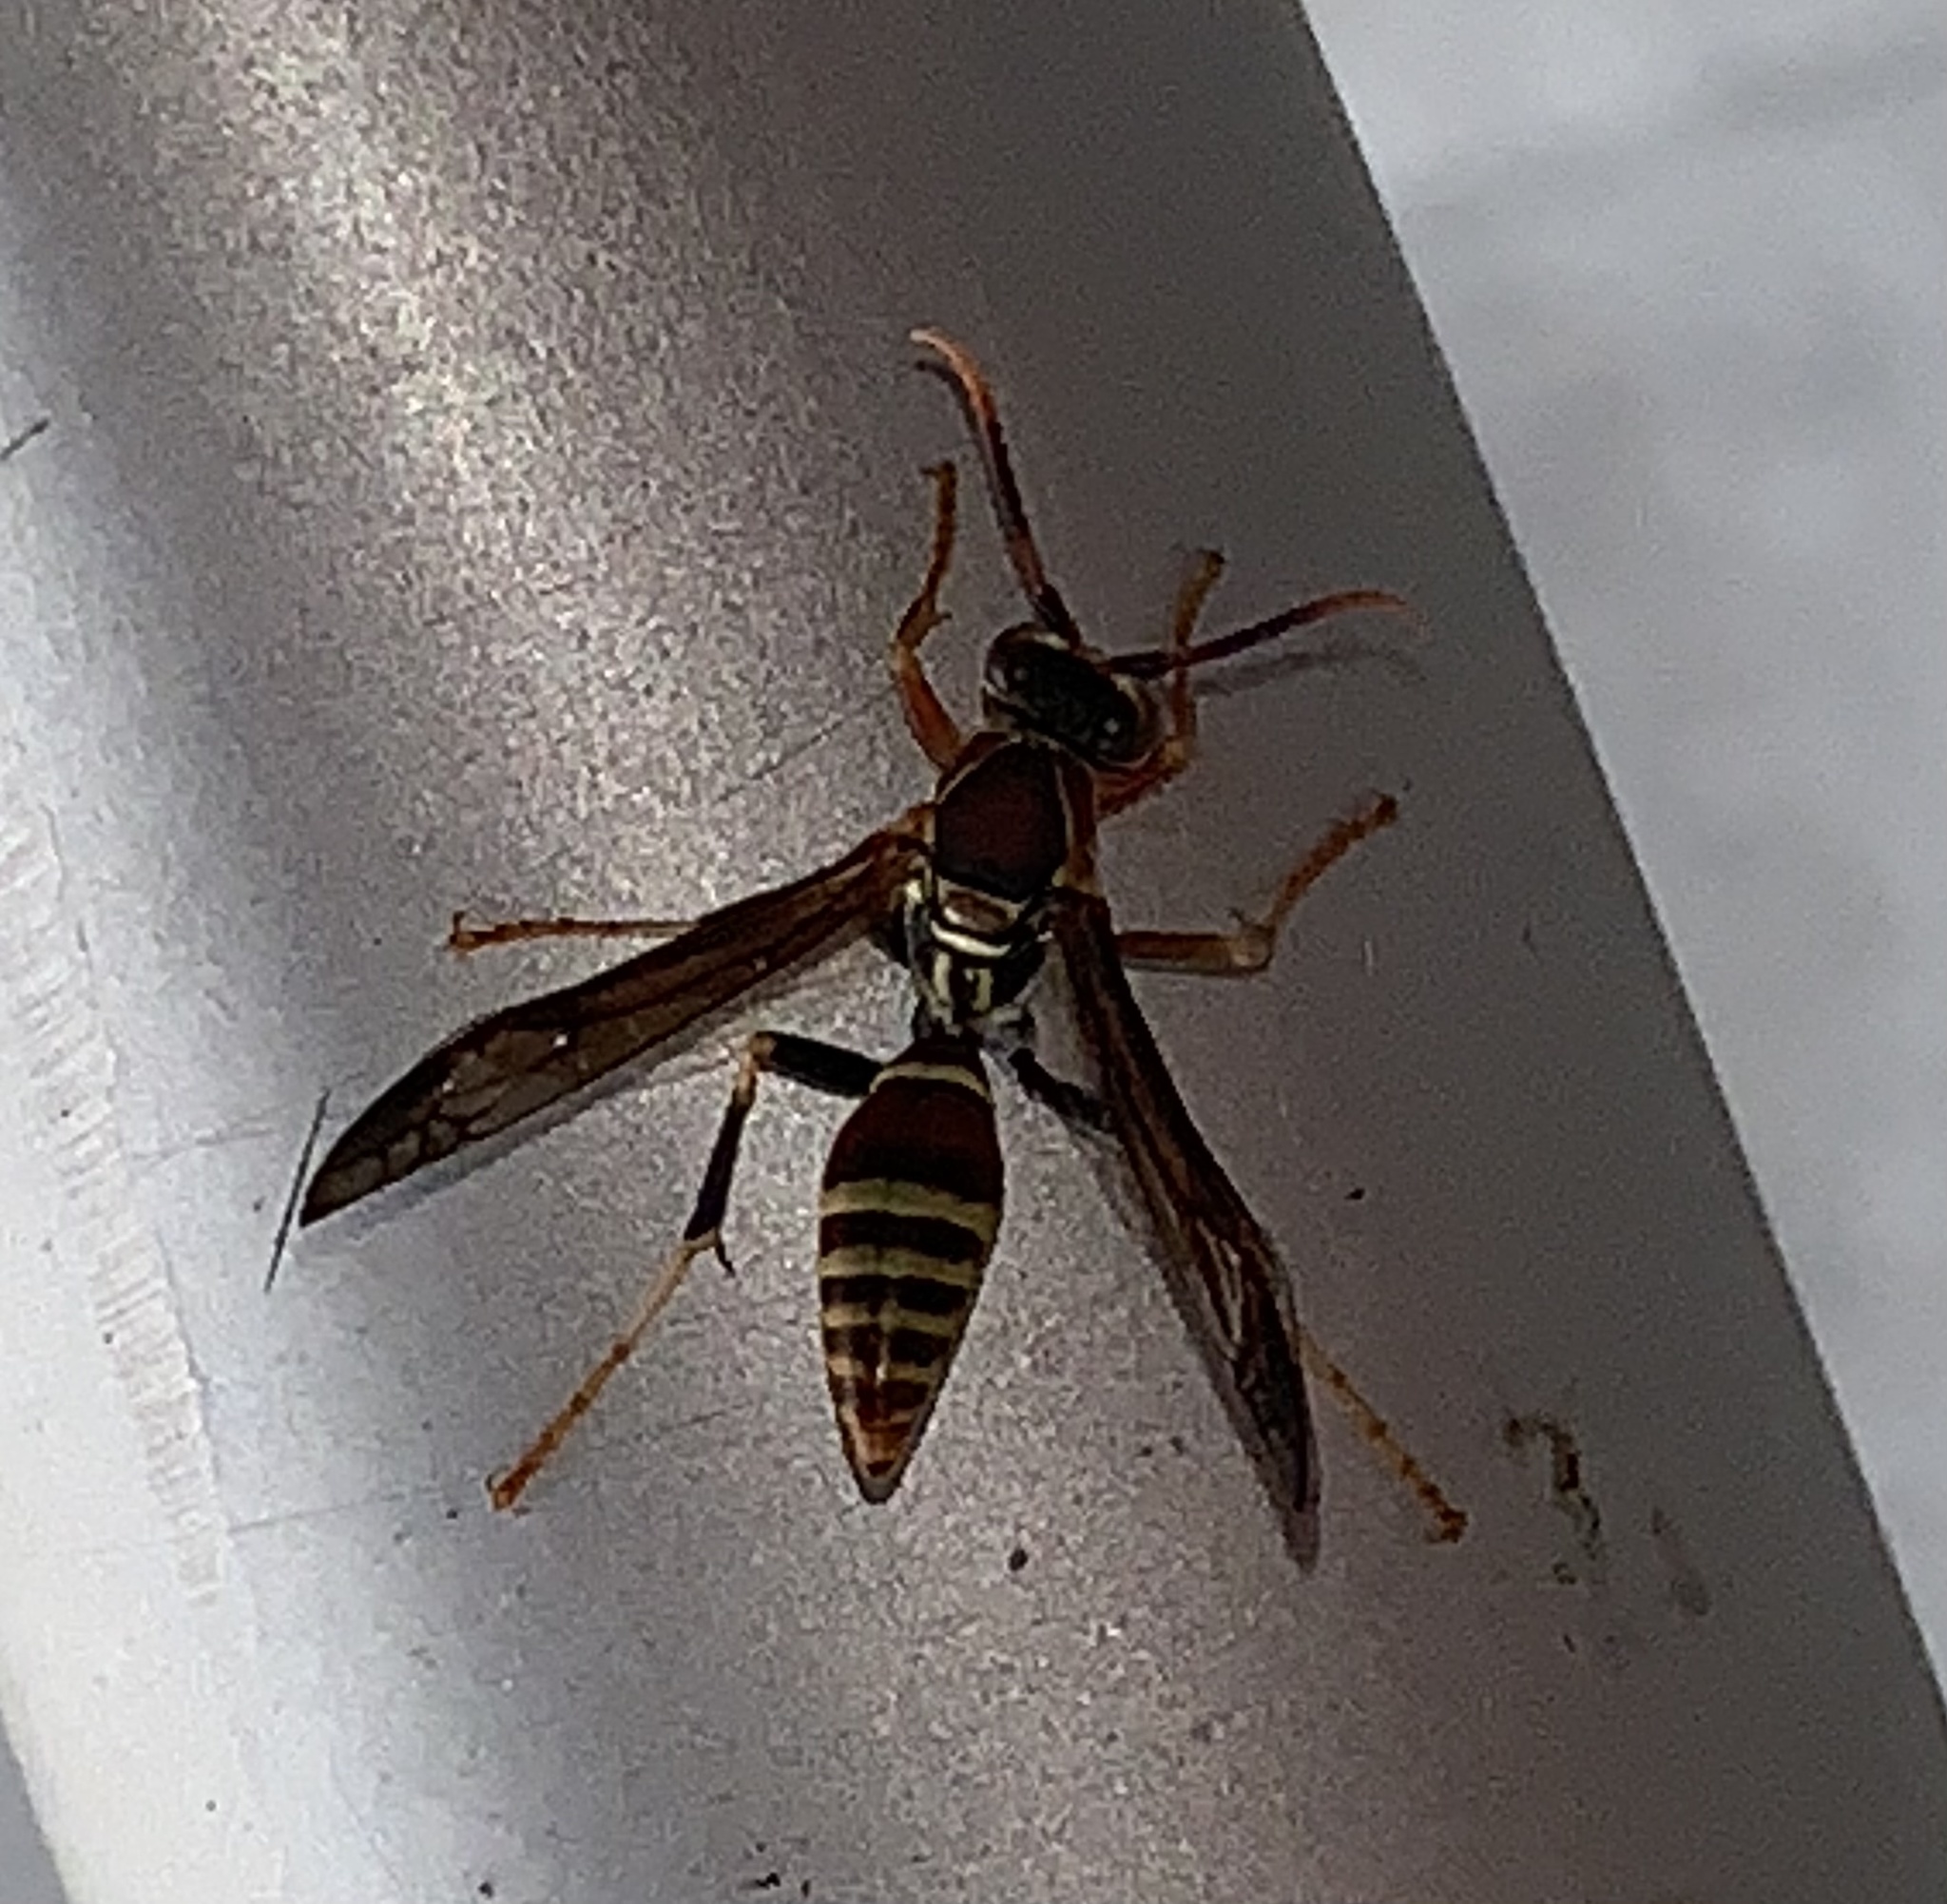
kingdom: Animalia
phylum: Arthropoda
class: Insecta
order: Hymenoptera
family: Eumenidae
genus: Polistes
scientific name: Polistes exclamans
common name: Paper wasp
